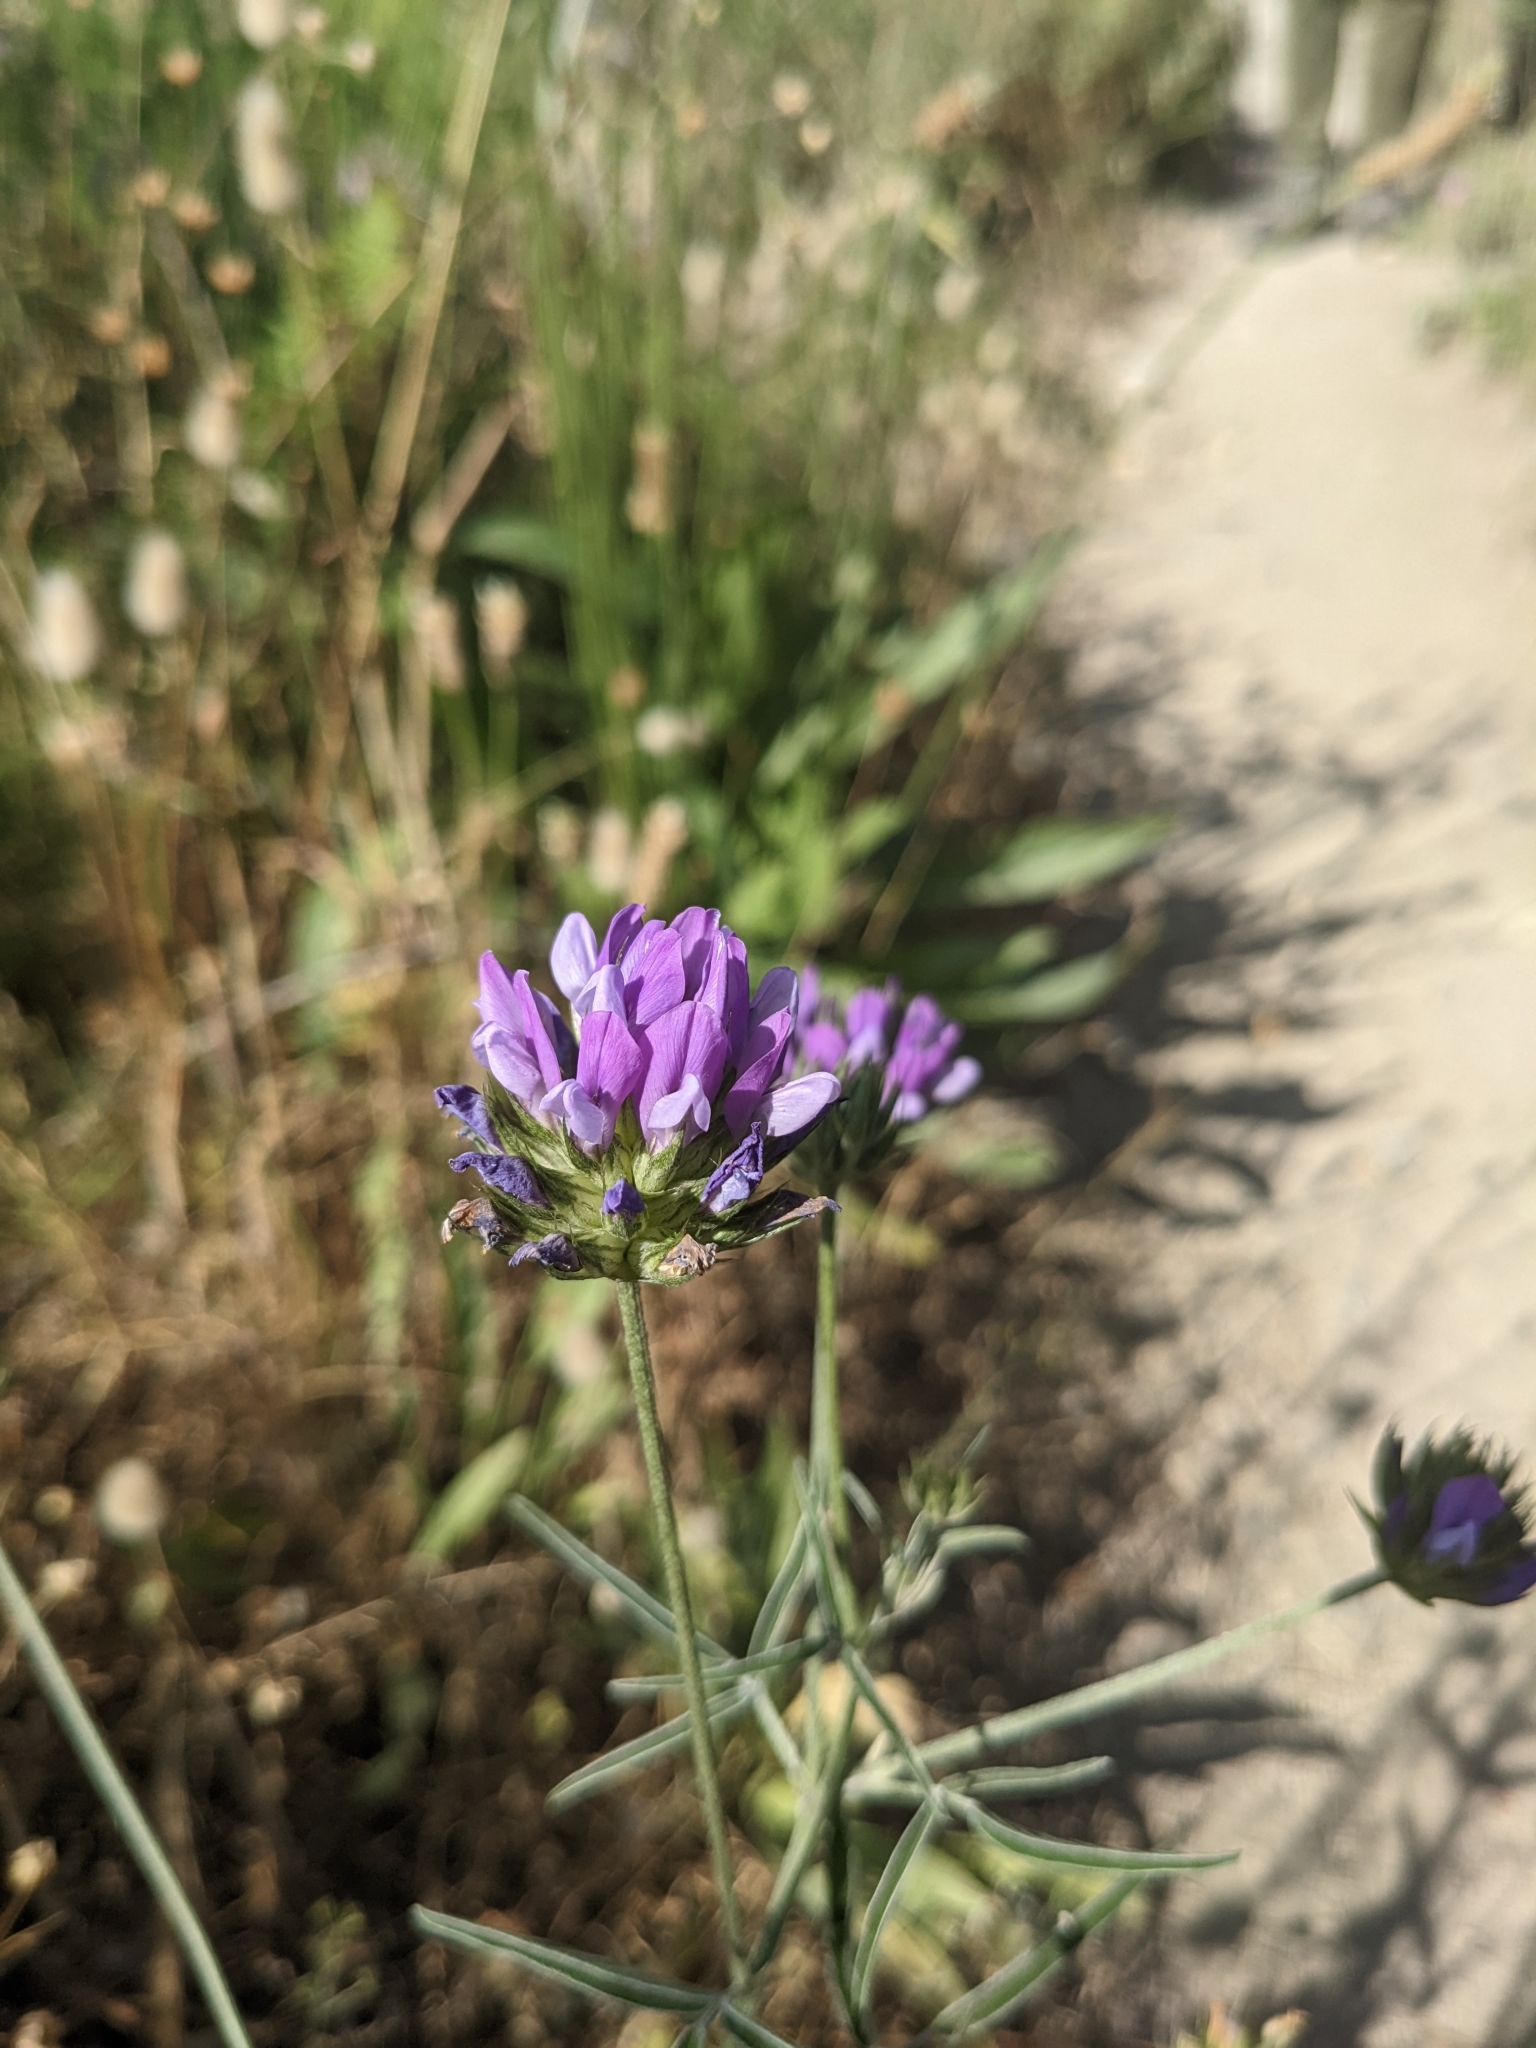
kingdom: Plantae
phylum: Tracheophyta
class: Magnoliopsida
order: Fabales
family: Fabaceae
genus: Bituminaria
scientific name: Bituminaria bituminosa
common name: Arabian pea
